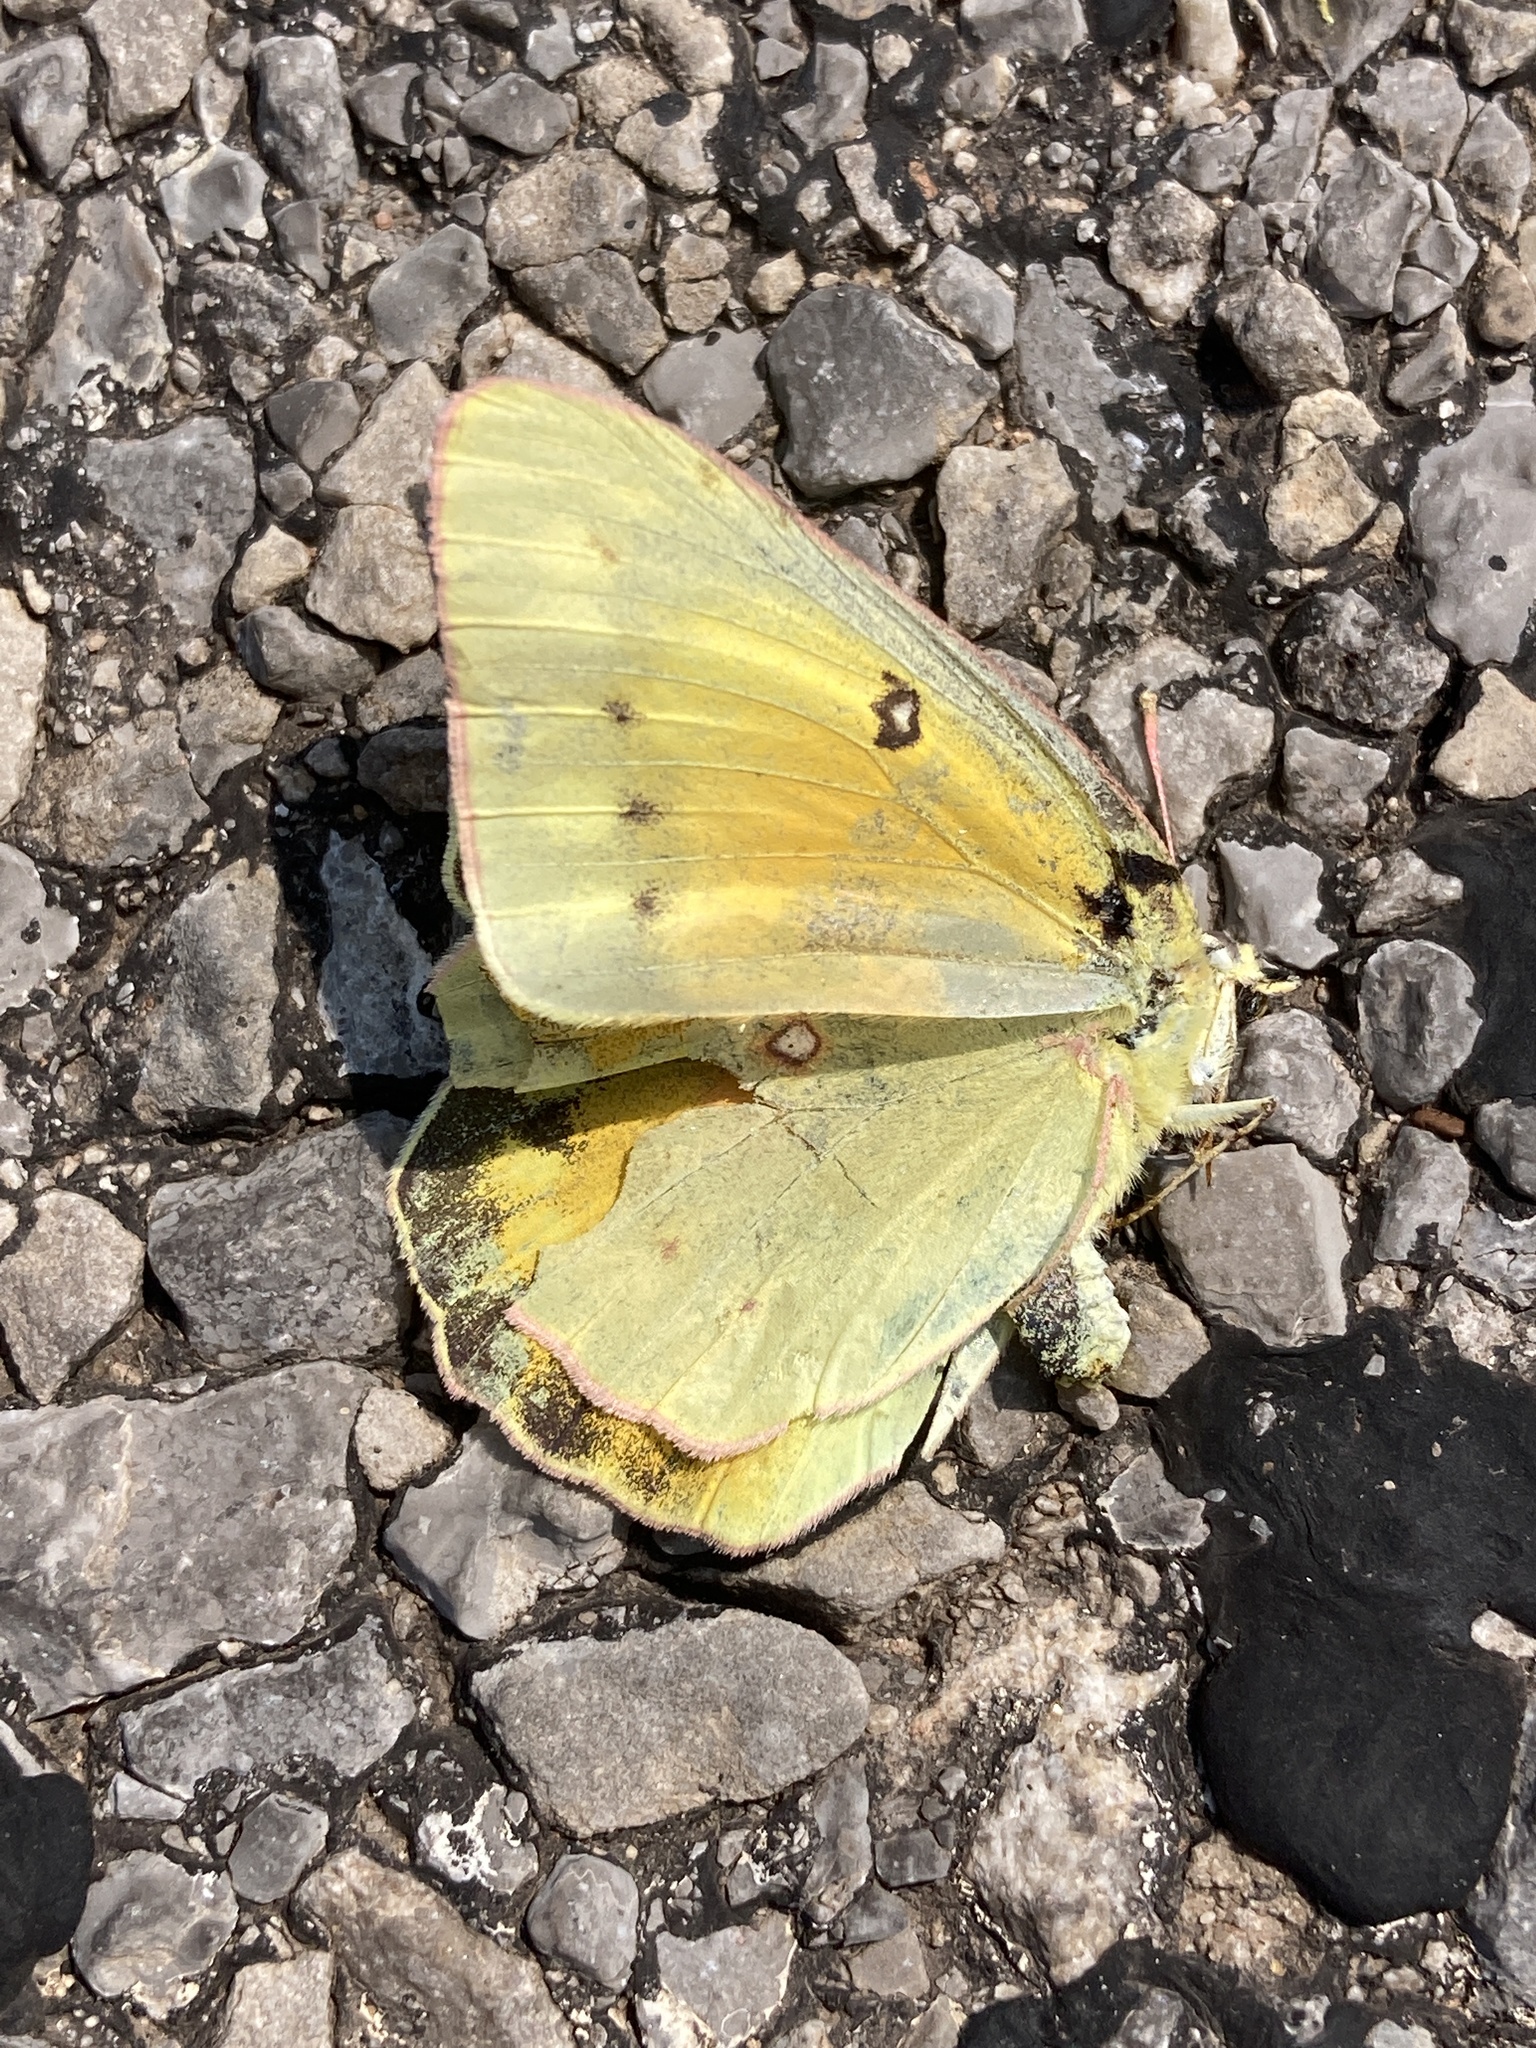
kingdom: Animalia
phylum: Arthropoda
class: Insecta
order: Lepidoptera
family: Pieridae
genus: Colias
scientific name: Colias eurytheme
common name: Alfalfa butterfly
